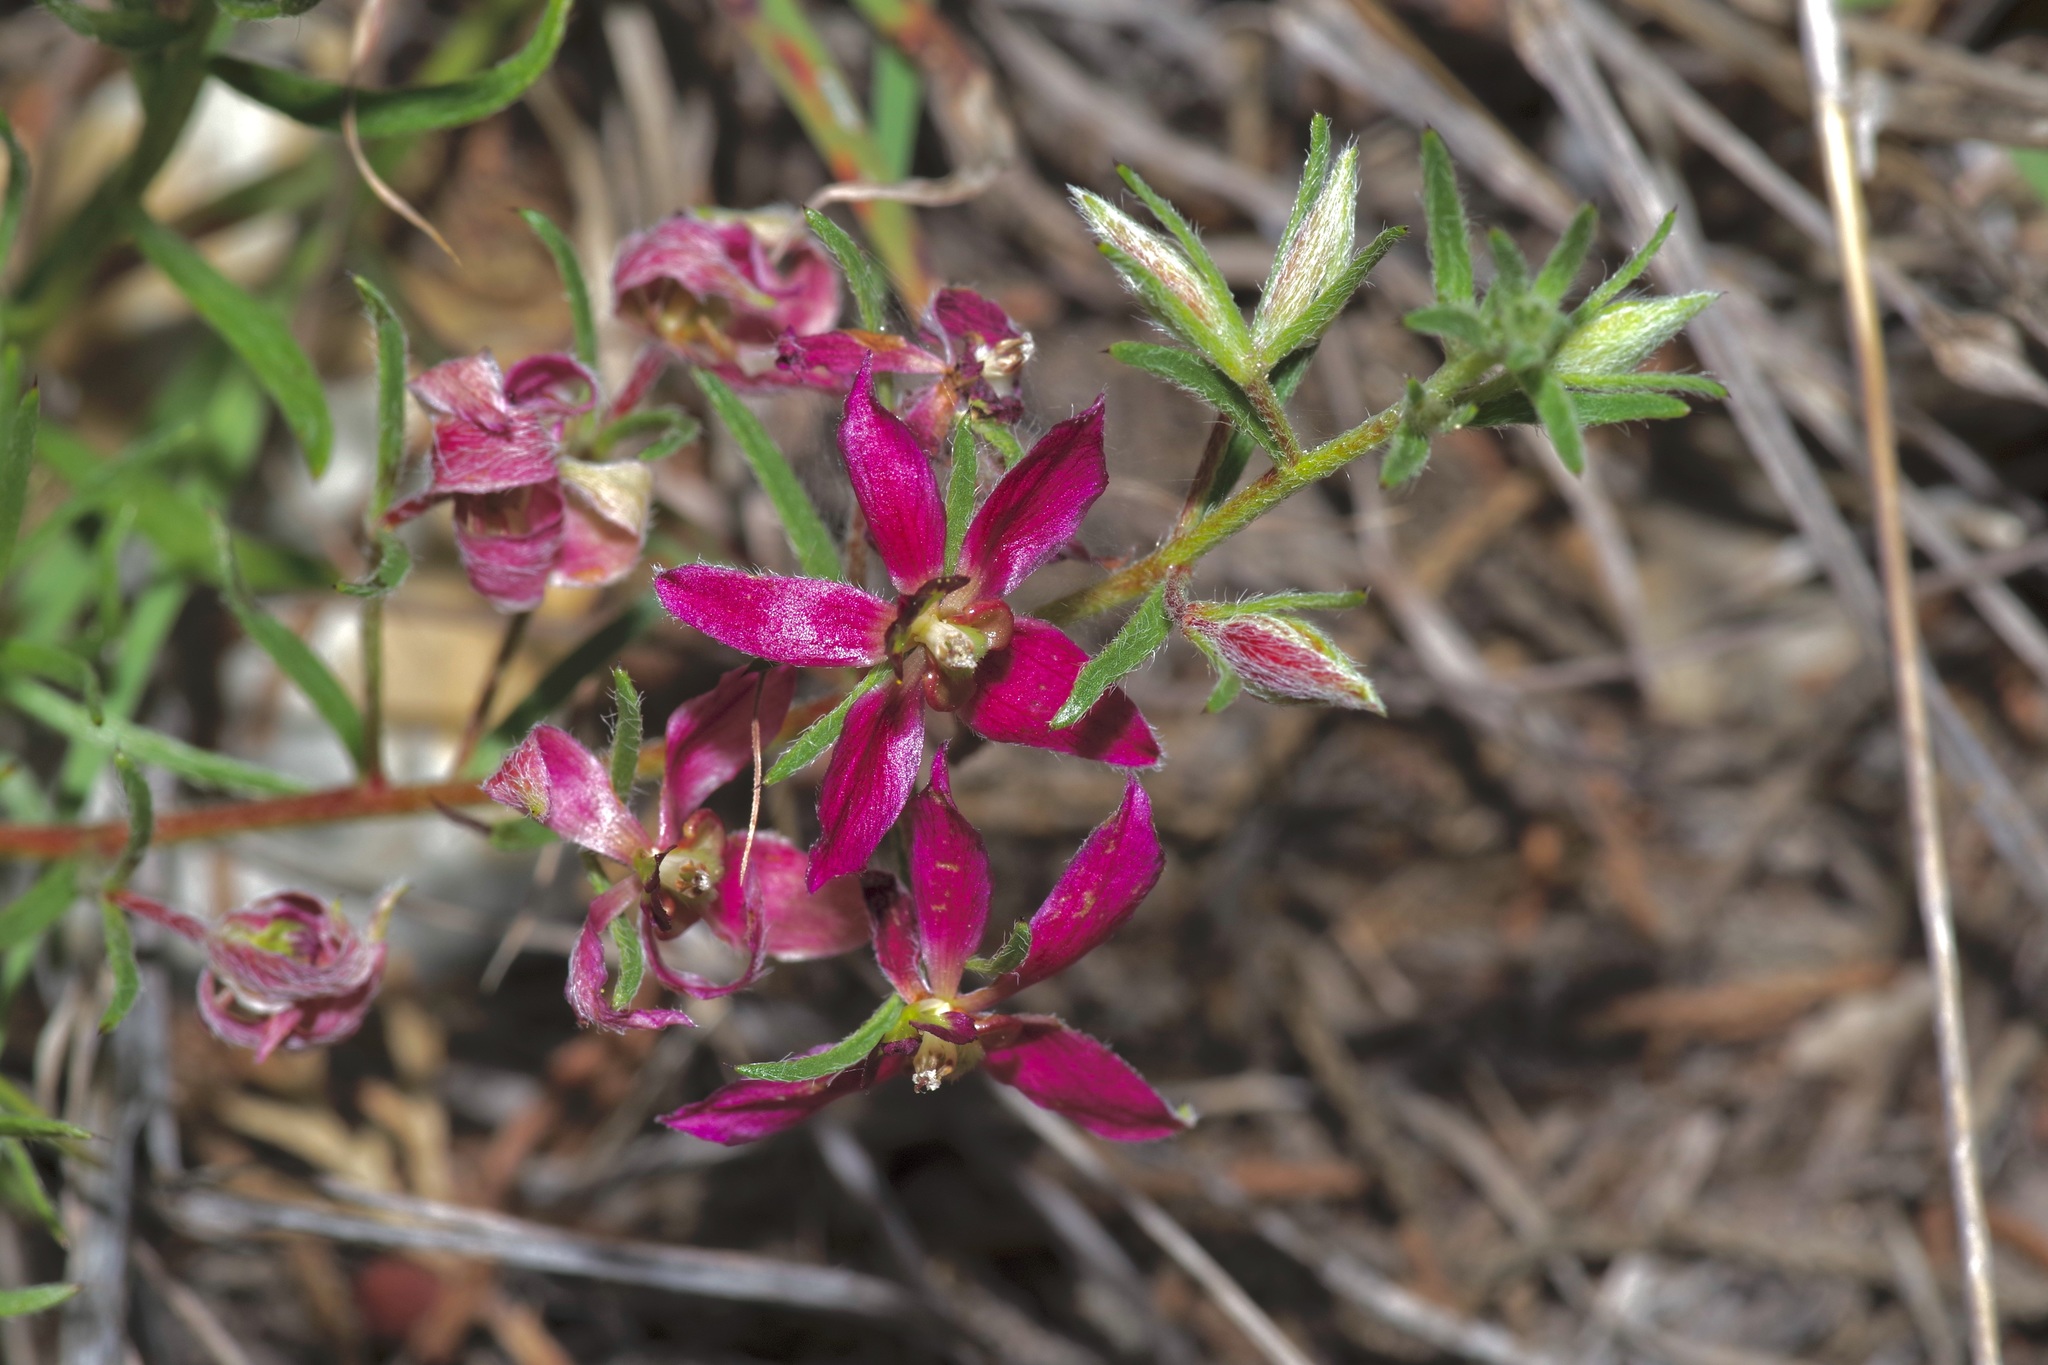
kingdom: Plantae
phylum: Tracheophyta
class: Magnoliopsida
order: Zygophyllales
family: Krameriaceae
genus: Krameria
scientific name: Krameria lanceolata
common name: Ratany
